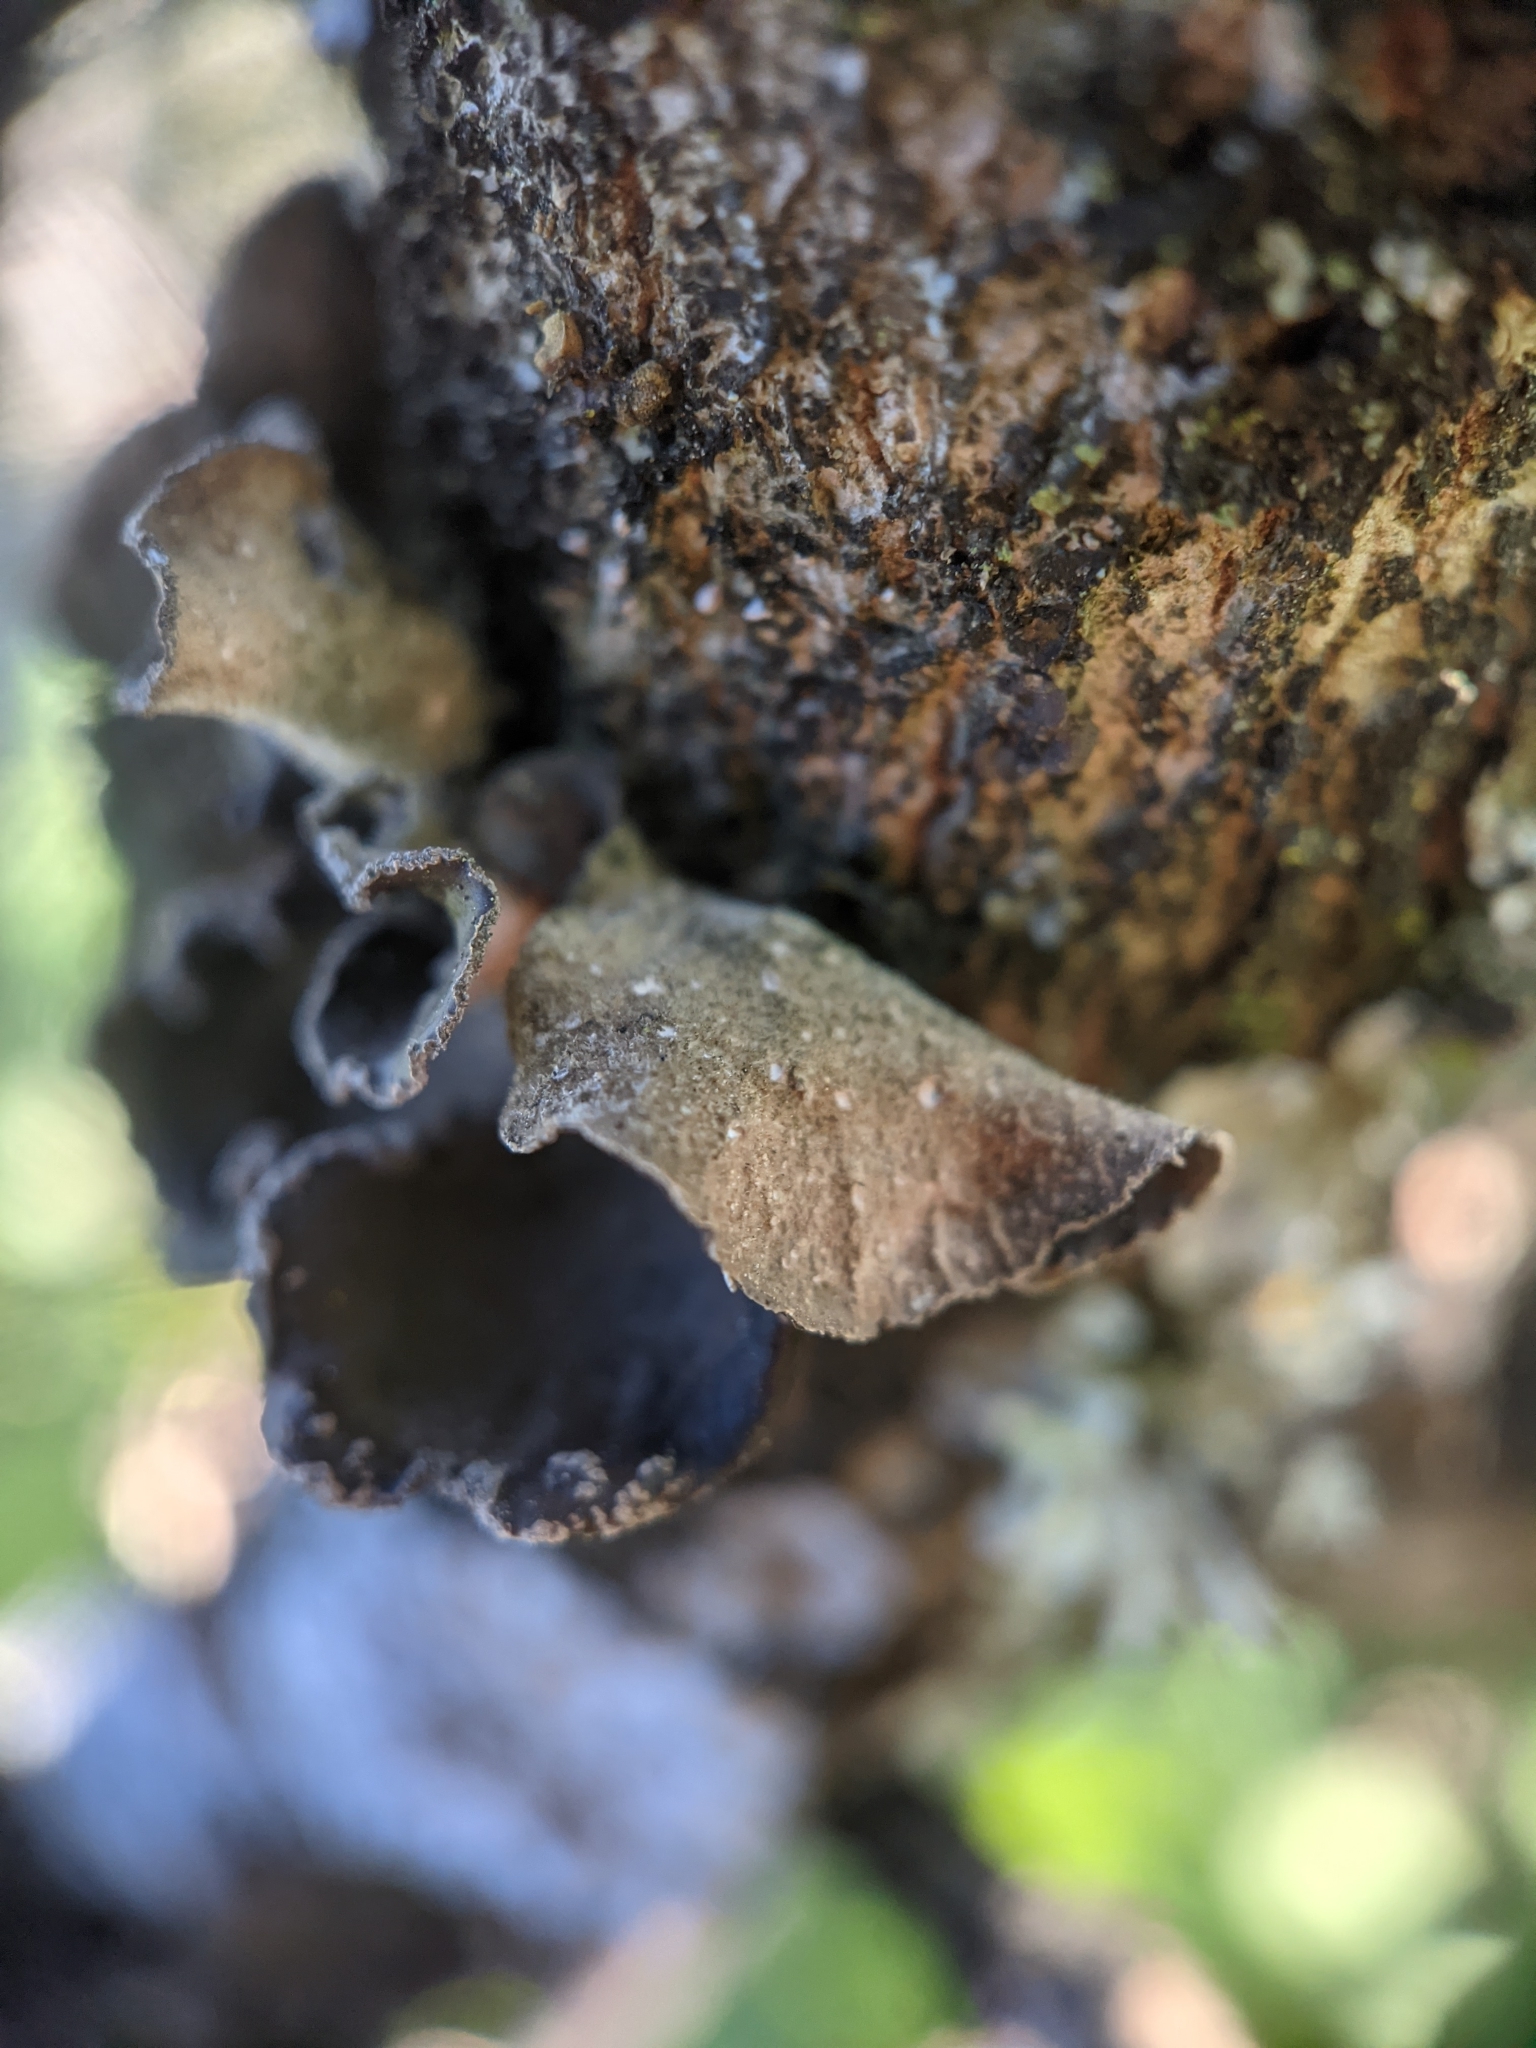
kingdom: Fungi
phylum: Ascomycota
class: Lecanoromycetes
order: Peltigerales
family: Lobariaceae
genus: Sticta
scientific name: Sticta limbata
